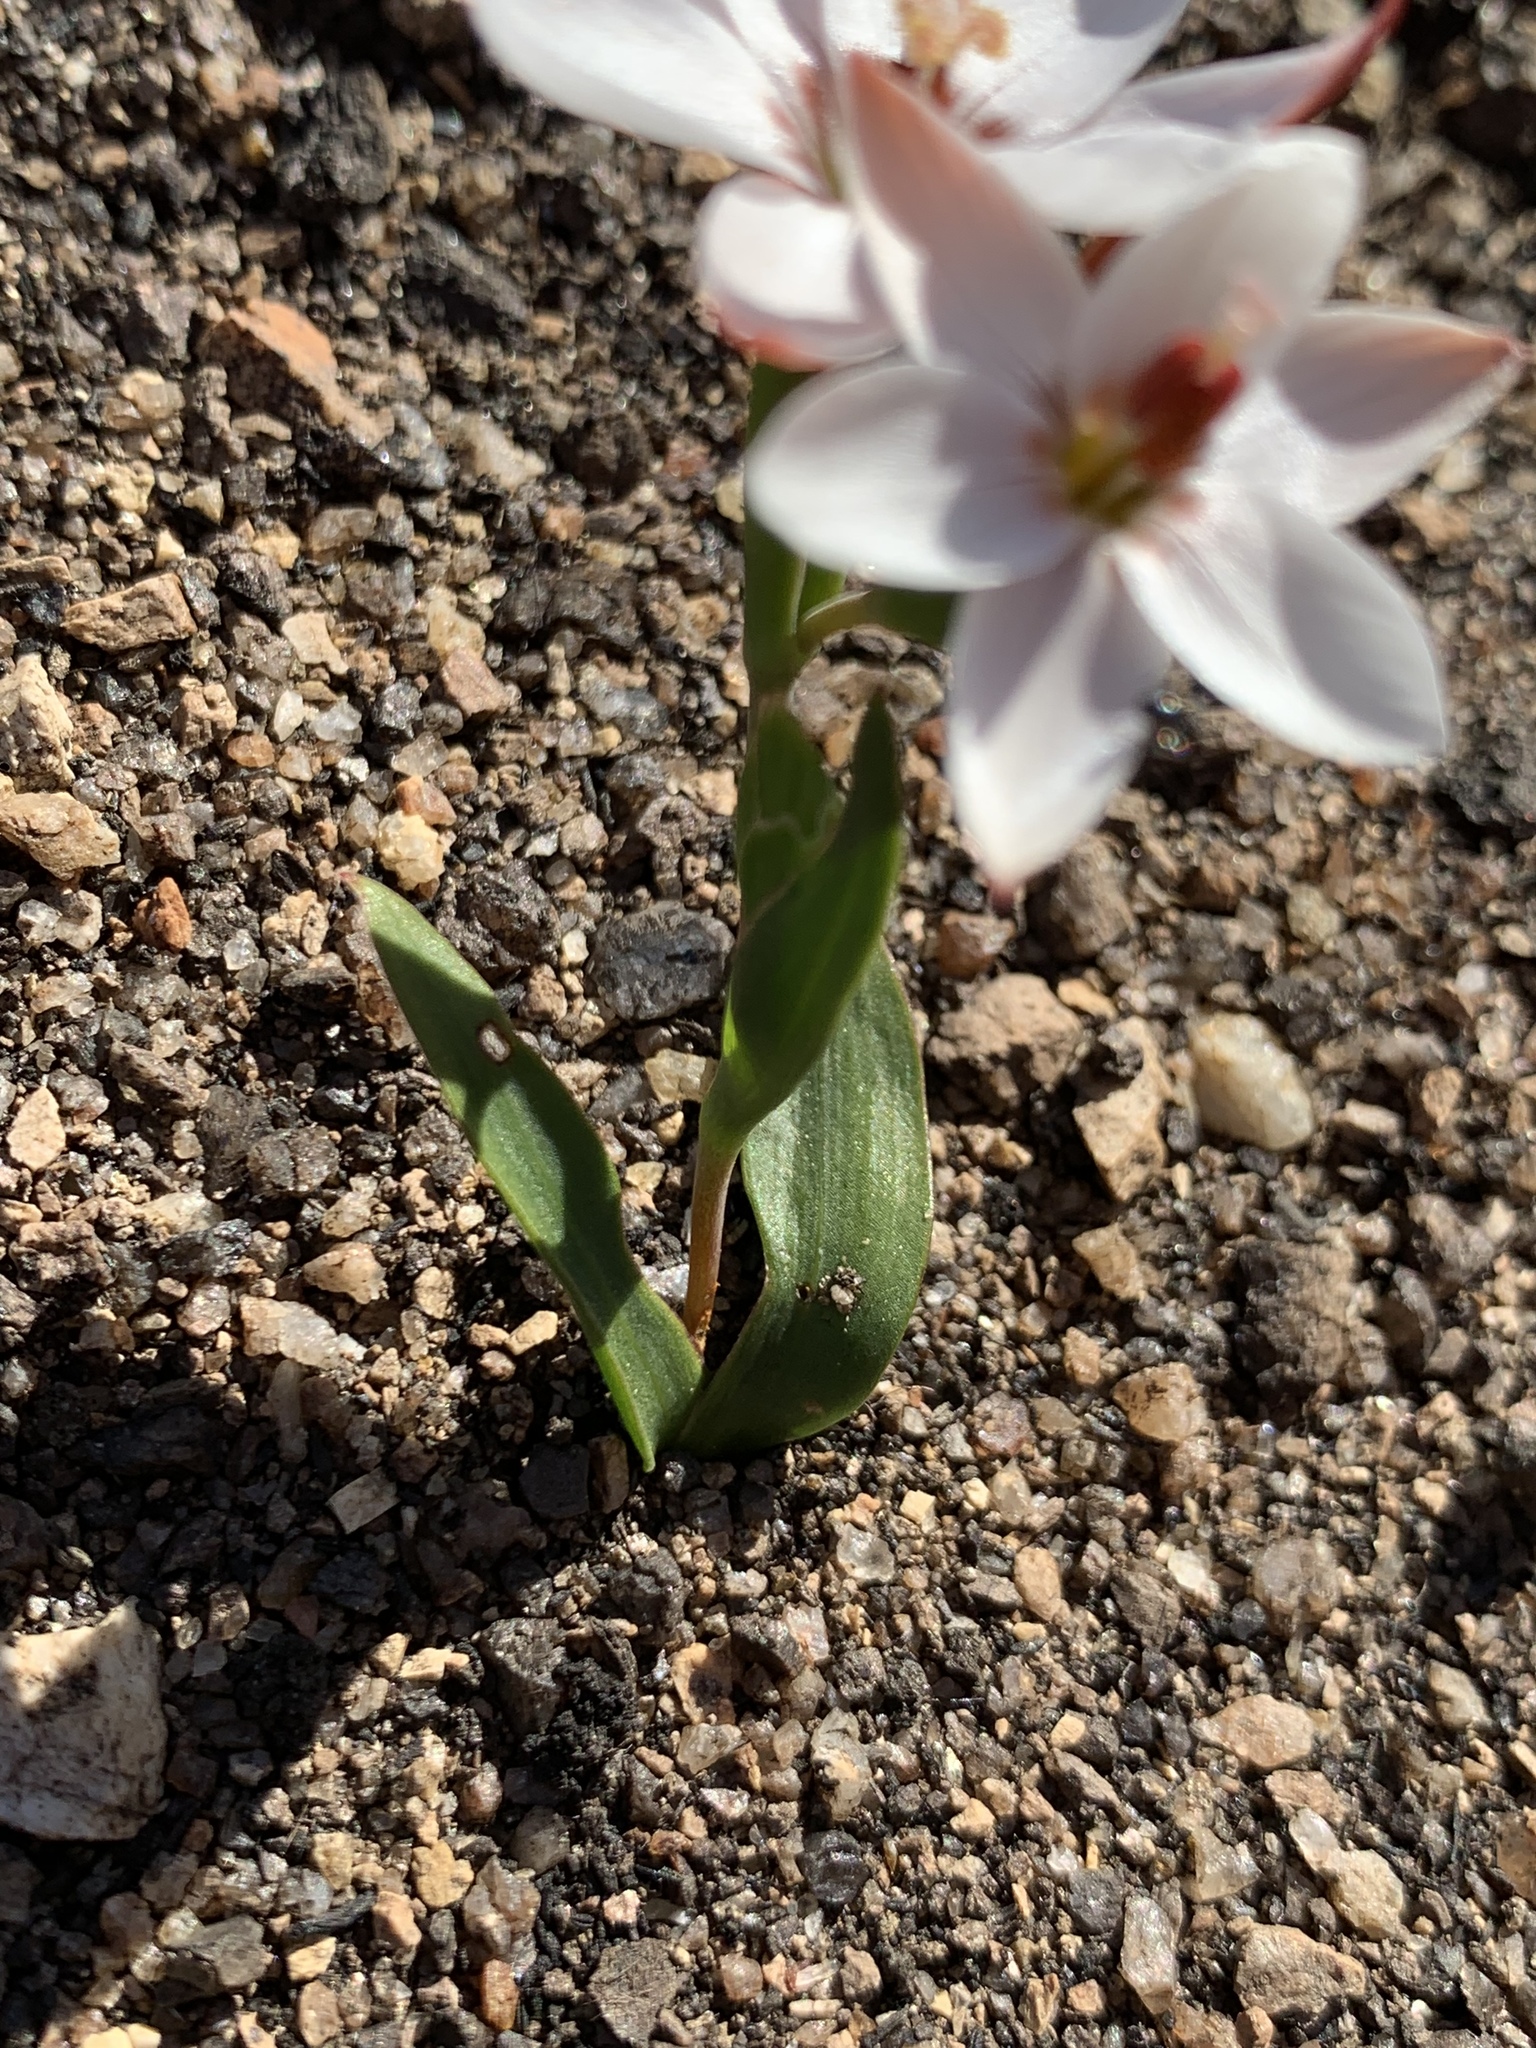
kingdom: Plantae
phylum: Tracheophyta
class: Liliopsida
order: Asparagales
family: Iridaceae
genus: Geissorhiza
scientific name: Geissorhiza ovata
